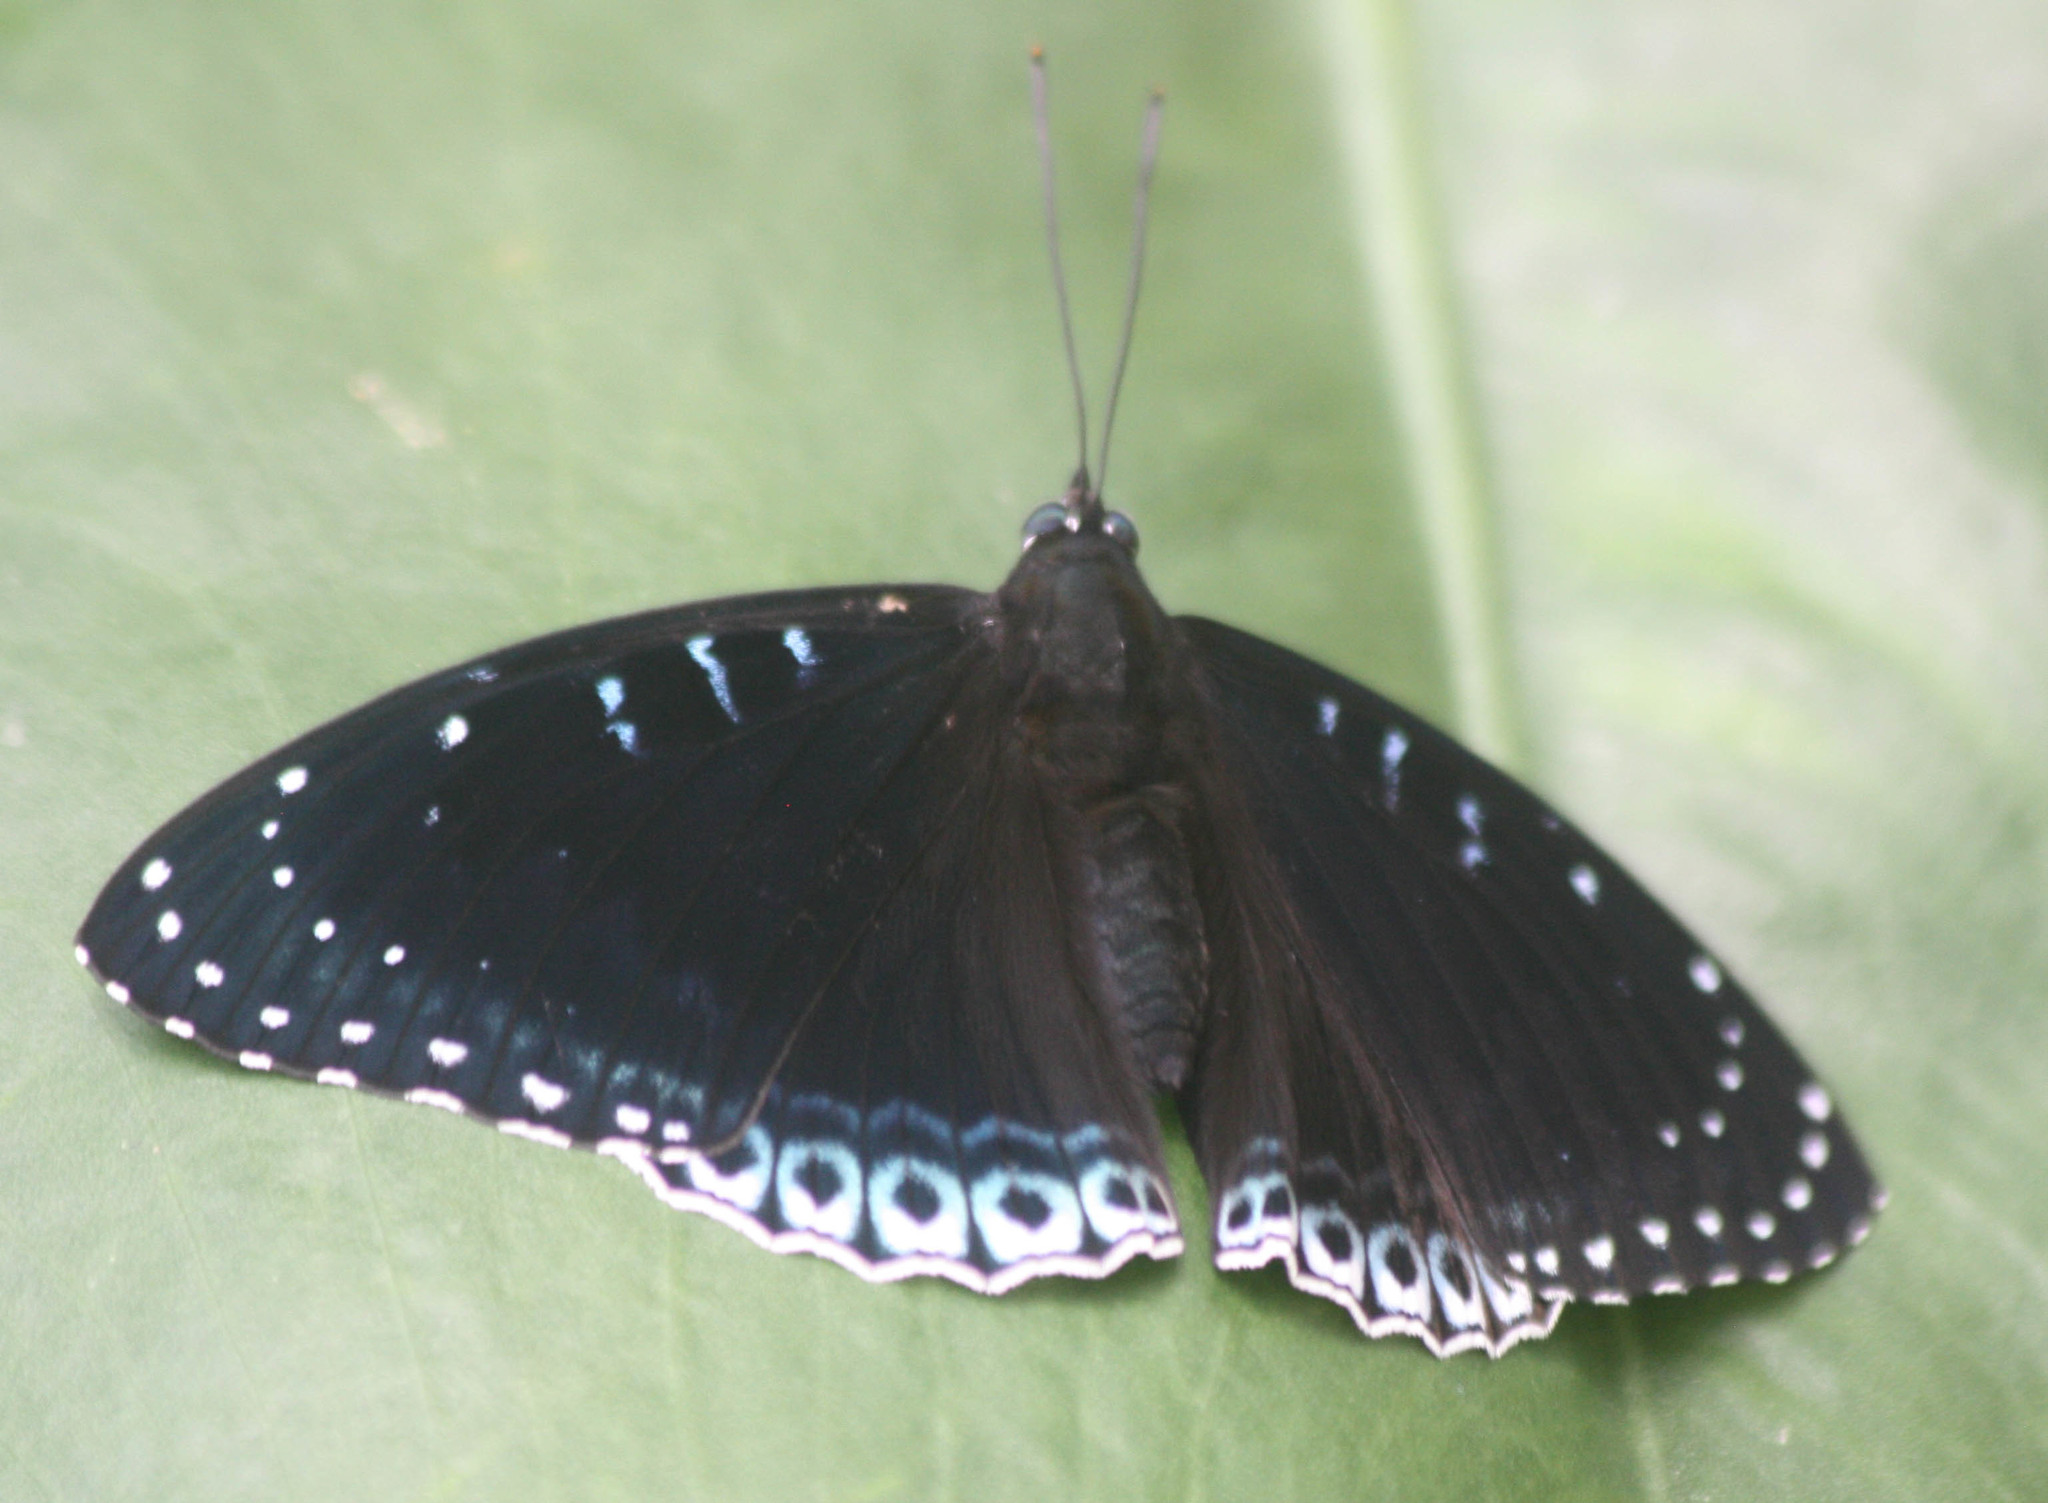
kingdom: Animalia
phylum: Arthropoda
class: Insecta
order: Lepidoptera
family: Nymphalidae
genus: Stibochiona
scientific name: Stibochiona nicea
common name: Popinjay
